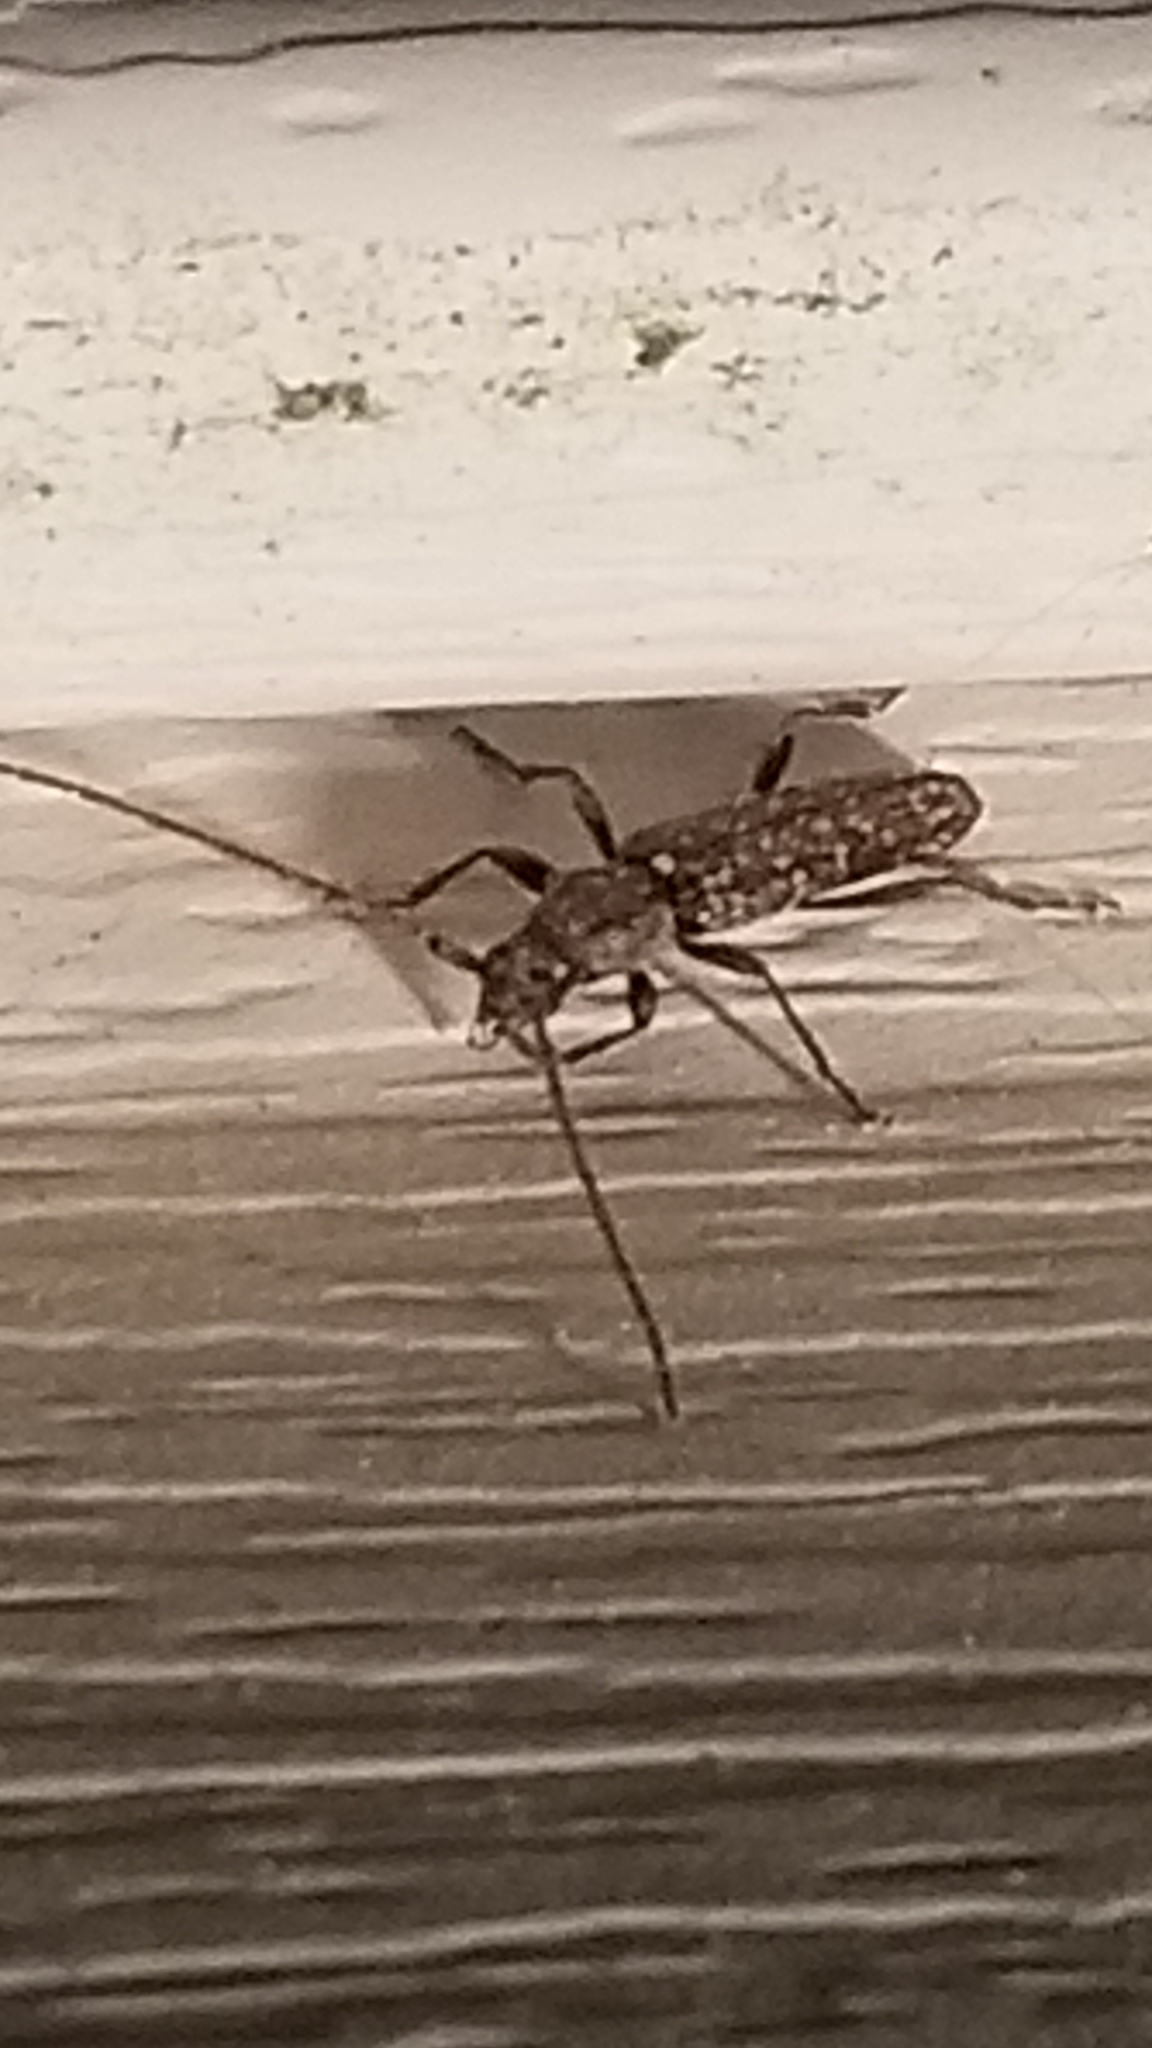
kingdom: Animalia
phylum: Arthropoda
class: Insecta
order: Coleoptera
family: Cerambycidae
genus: Anelaphus
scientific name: Anelaphus pumilus
